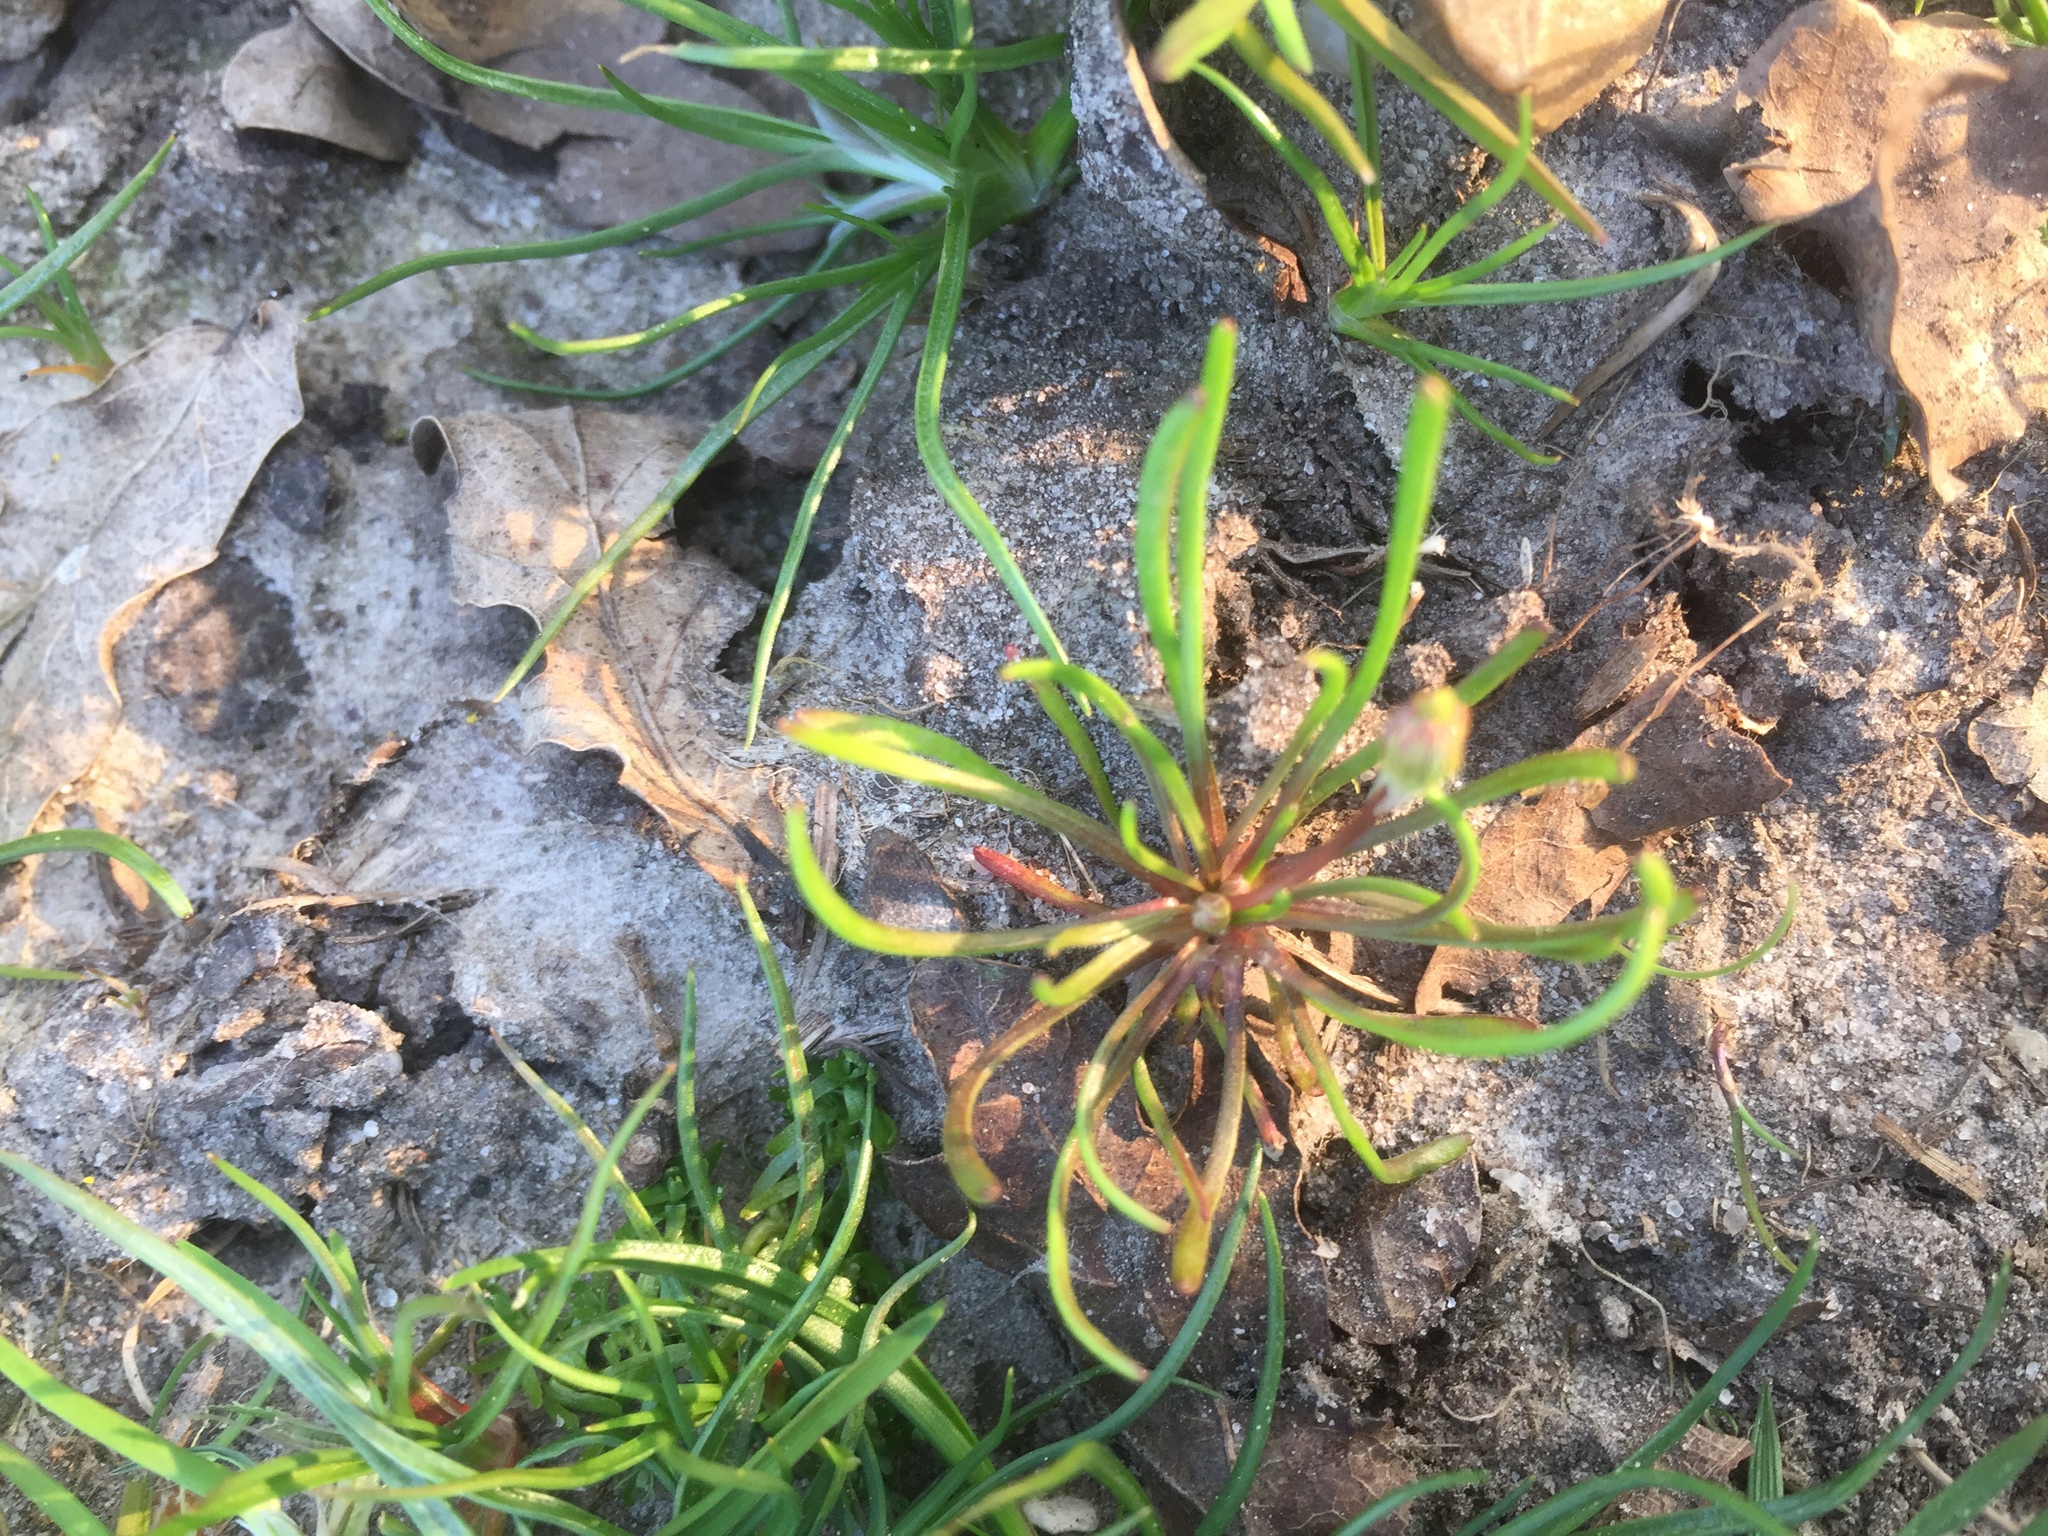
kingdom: Plantae
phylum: Tracheophyta
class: Magnoliopsida
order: Ranunculales
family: Ranunculaceae
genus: Myosurus
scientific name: Myosurus minimus
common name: Mousetail
